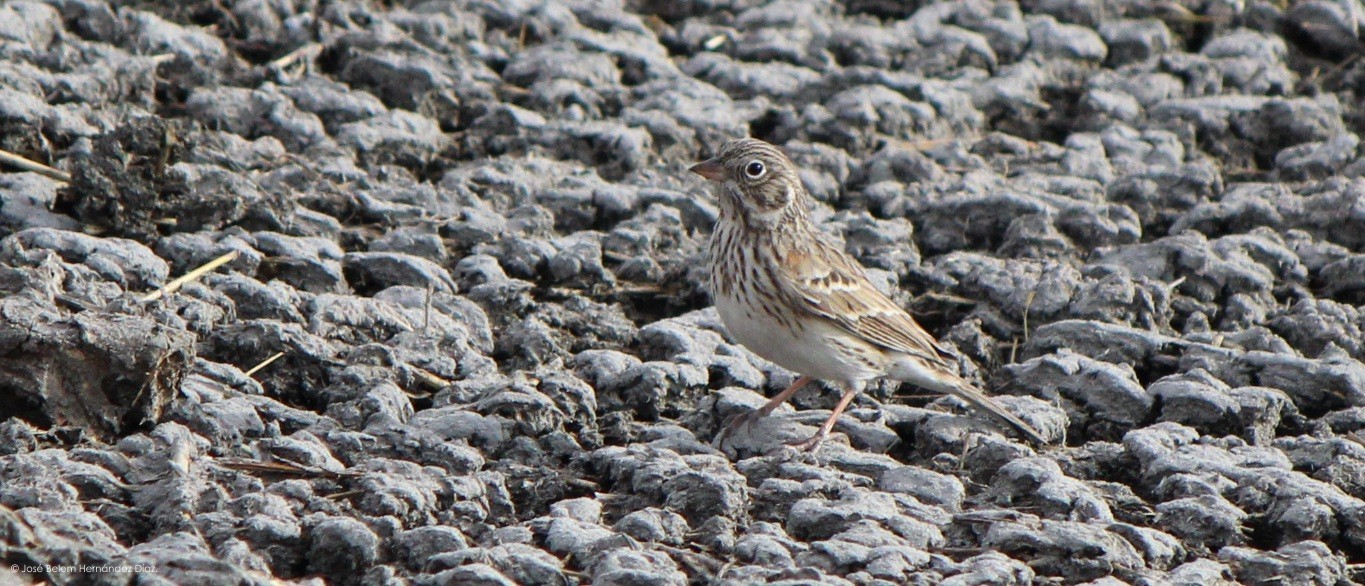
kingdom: Animalia
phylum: Chordata
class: Aves
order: Passeriformes
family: Passerellidae
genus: Pooecetes
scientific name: Pooecetes gramineus
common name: Vesper sparrow
